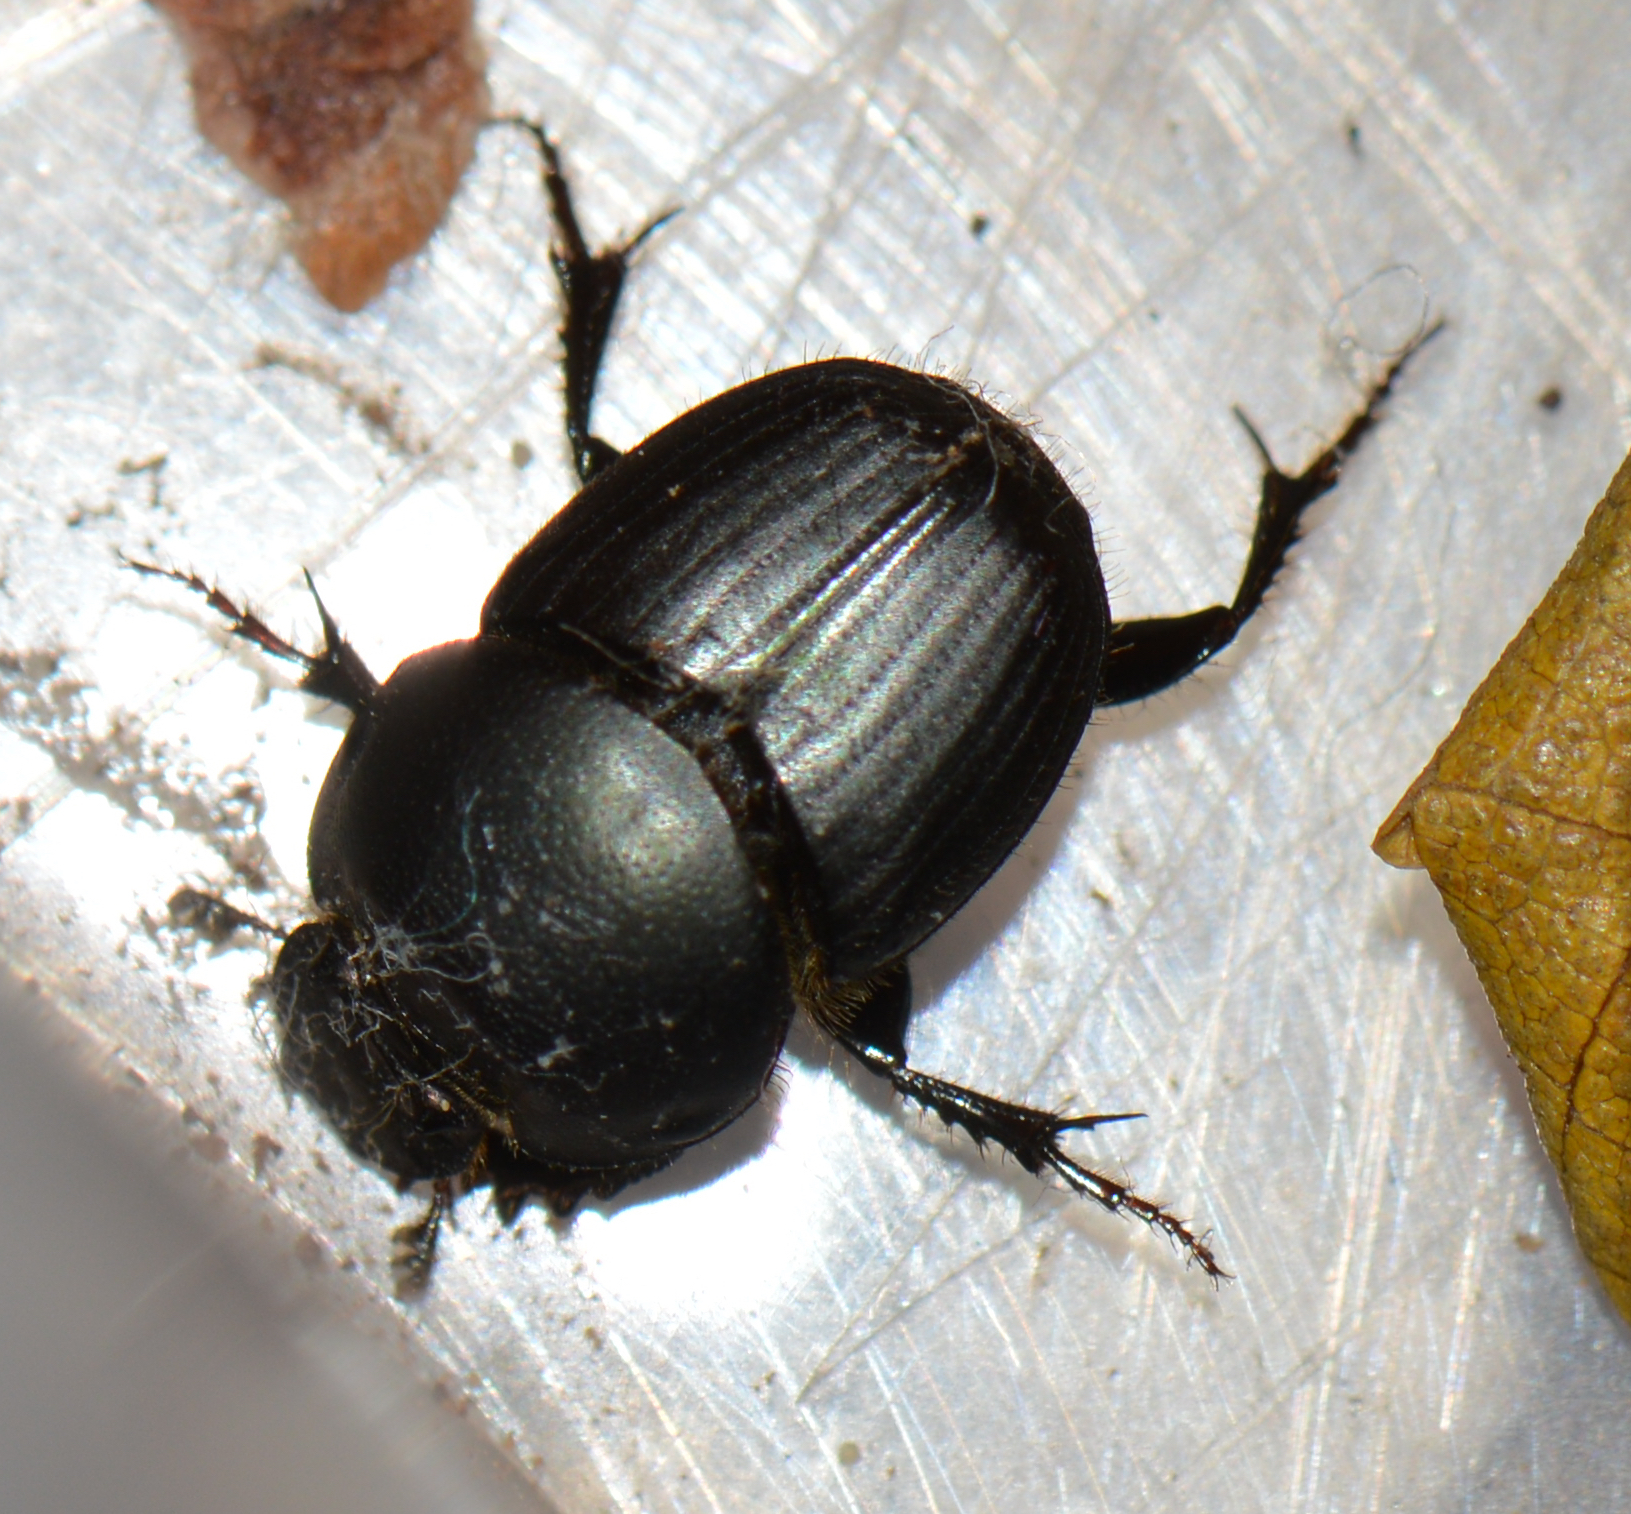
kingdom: Animalia
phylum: Arthropoda
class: Insecta
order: Coleoptera
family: Scarabaeidae
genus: Onthophagus
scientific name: Onthophagus taurus
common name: Bullhorned dung beetle
